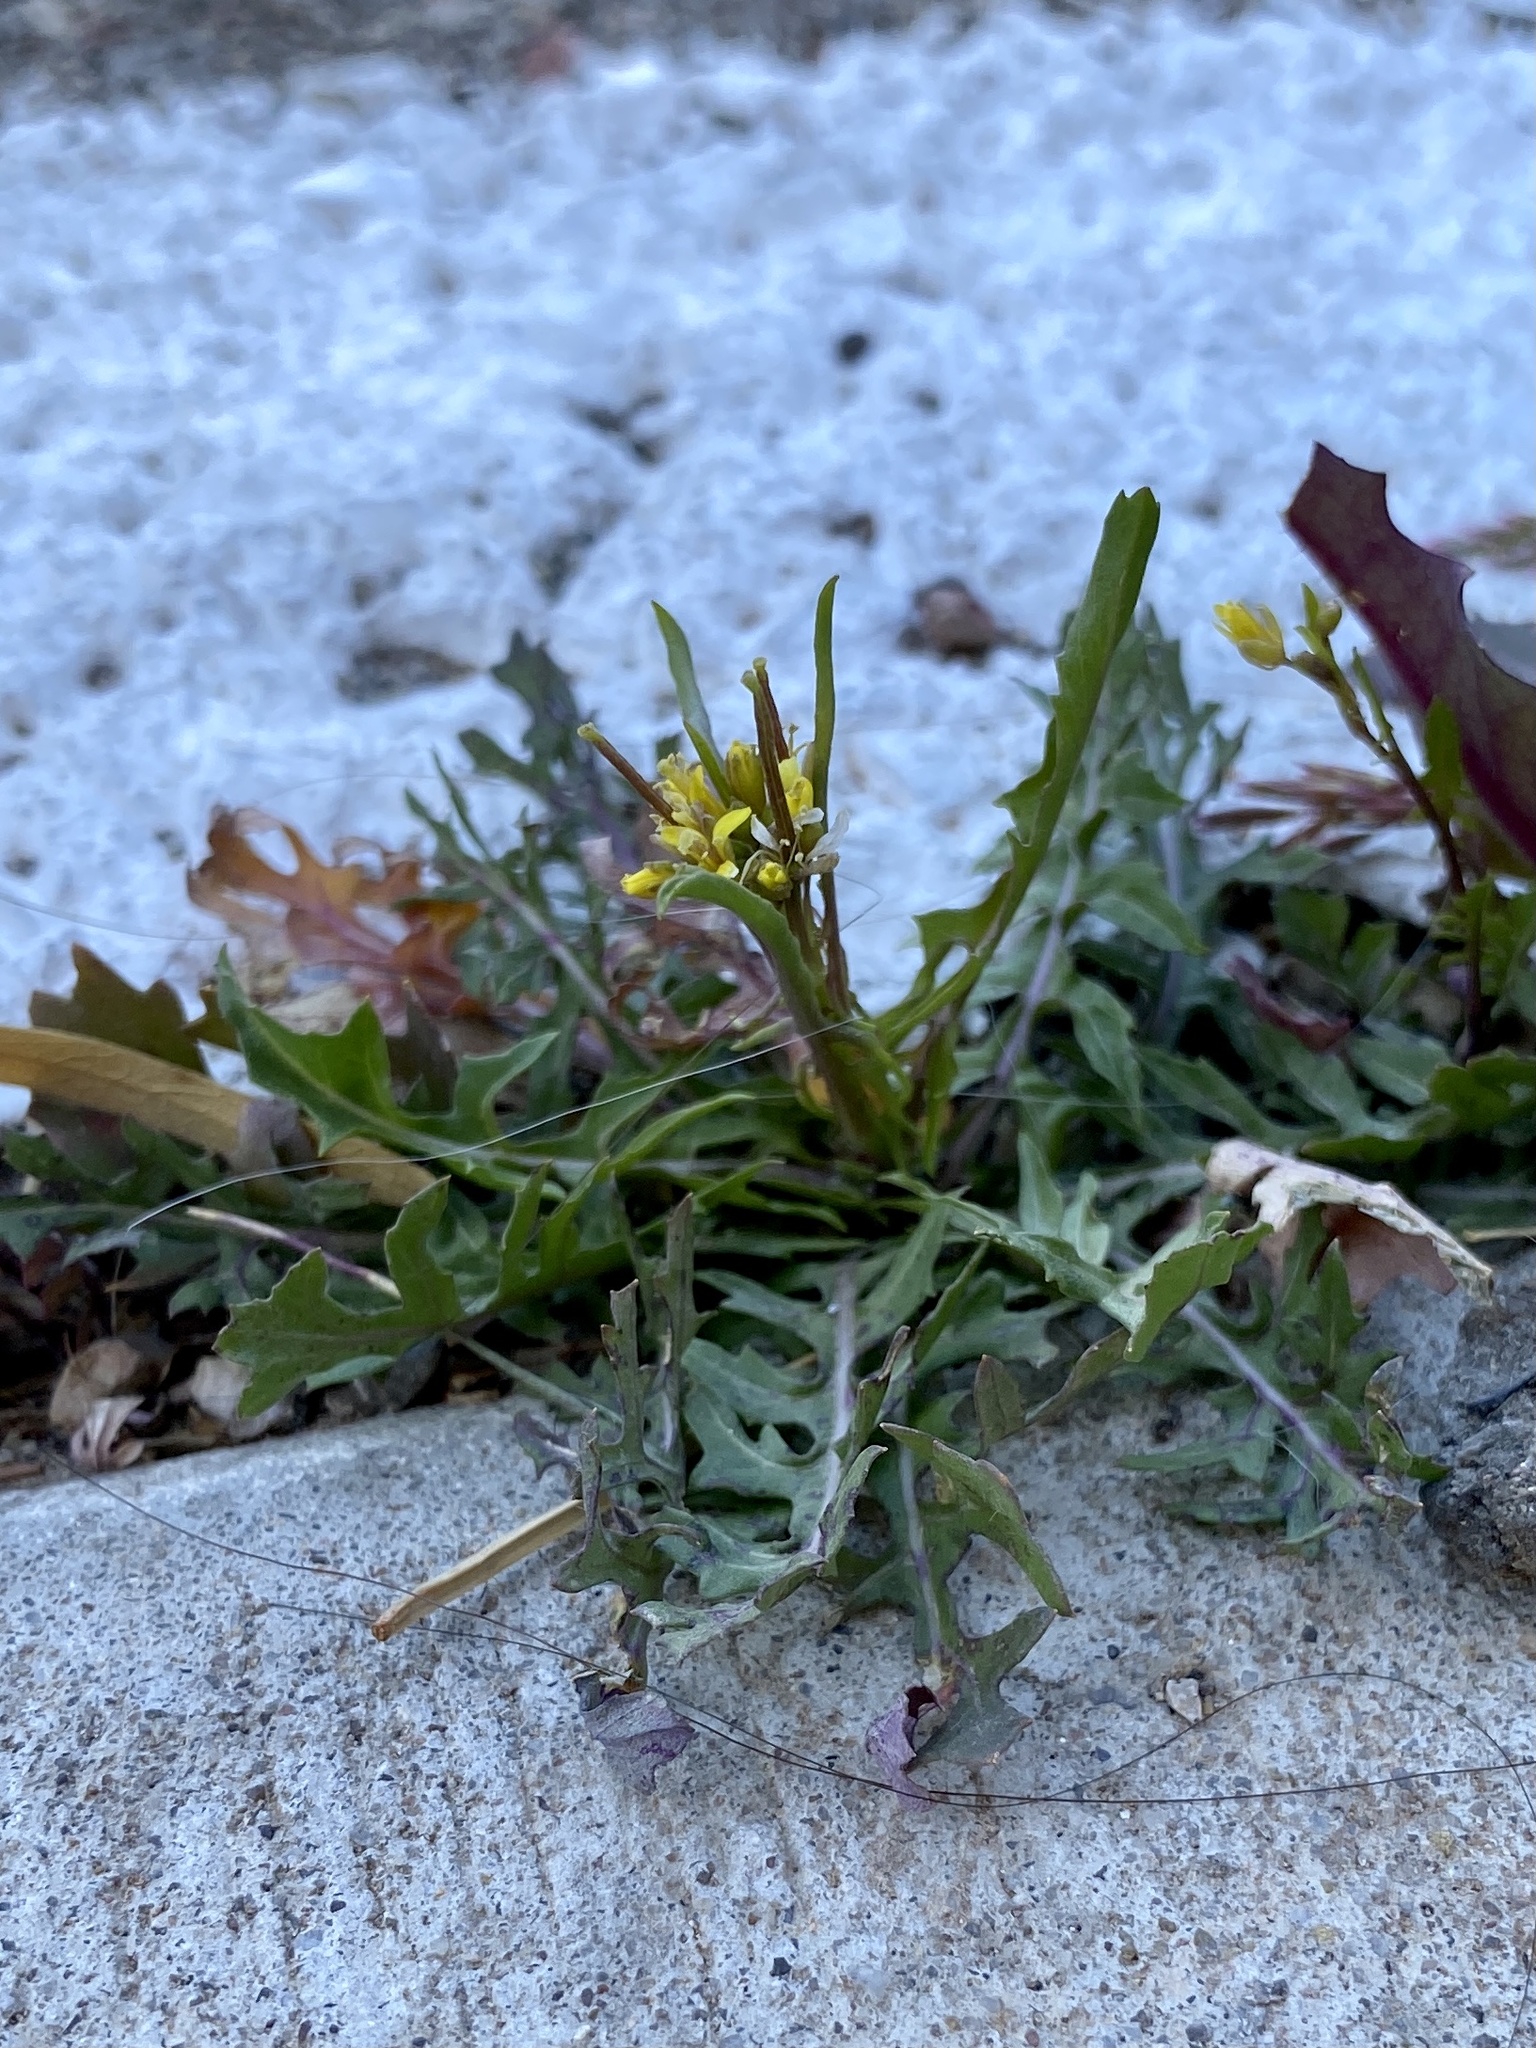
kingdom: Plantae
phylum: Tracheophyta
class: Magnoliopsida
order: Brassicales
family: Brassicaceae
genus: Sisymbrium
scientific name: Sisymbrium irio
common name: London rocket
